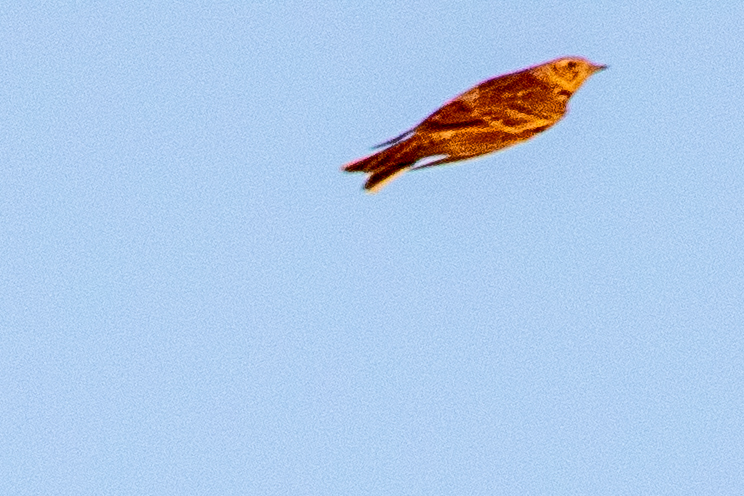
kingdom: Animalia
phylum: Chordata
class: Aves
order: Passeriformes
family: Alaudidae
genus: Alauda
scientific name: Alauda arvensis
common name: Eurasian skylark
